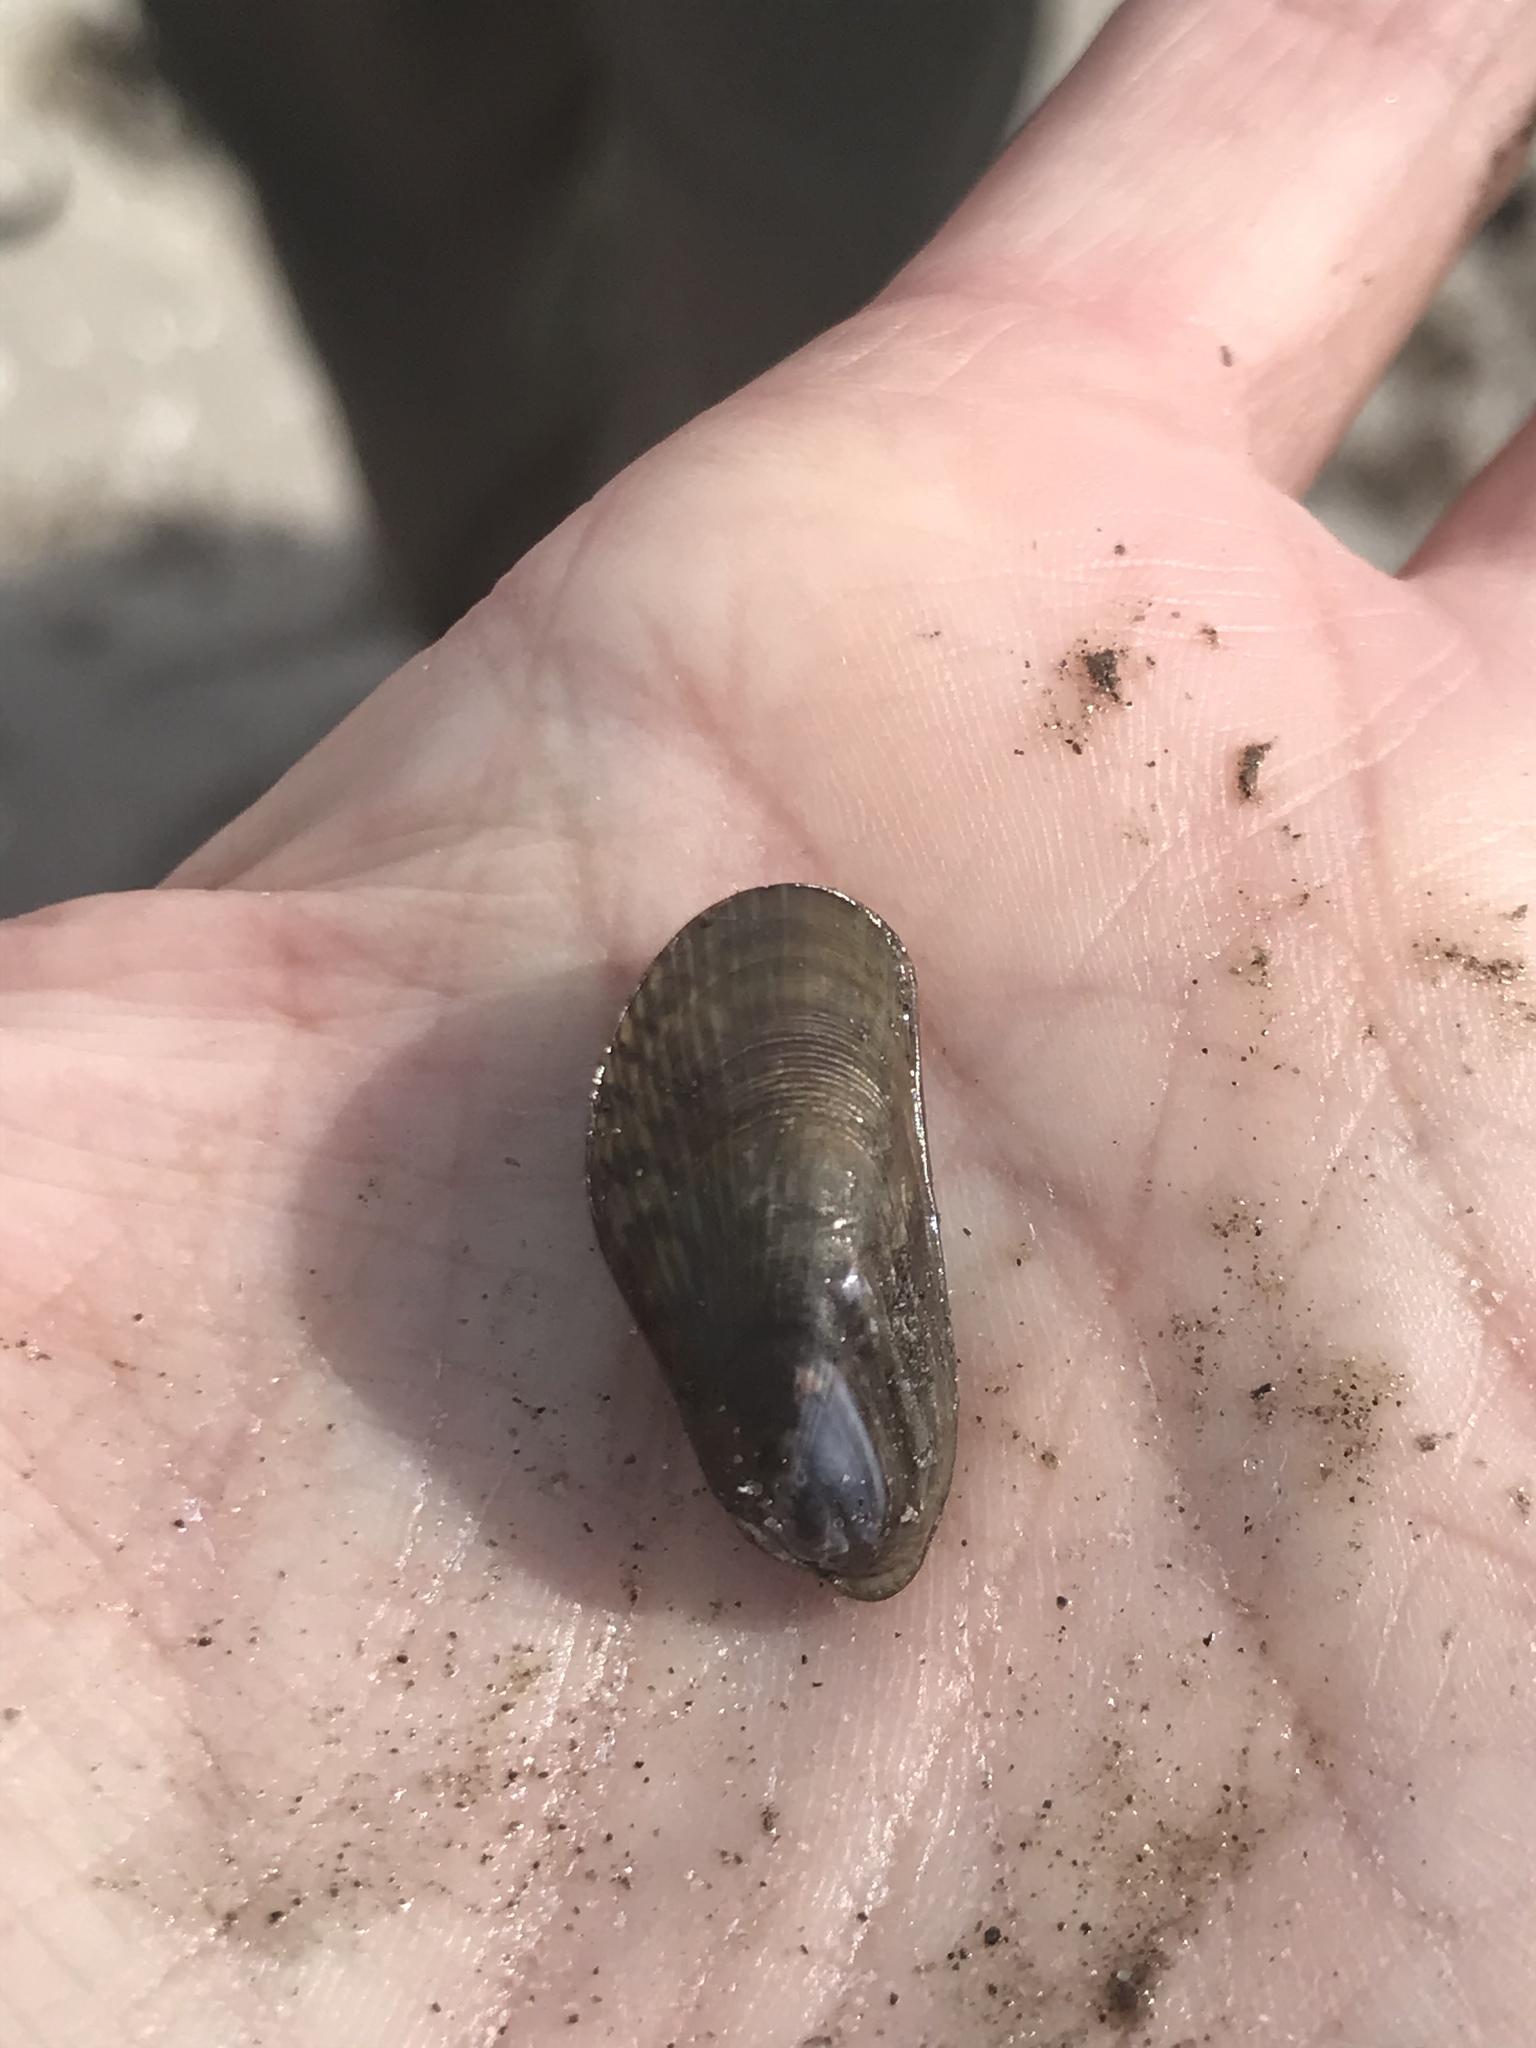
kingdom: Animalia
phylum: Mollusca
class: Bivalvia
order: Mytilida
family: Mytilidae
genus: Arcuatula
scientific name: Arcuatula senhousia
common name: Asian mussel
